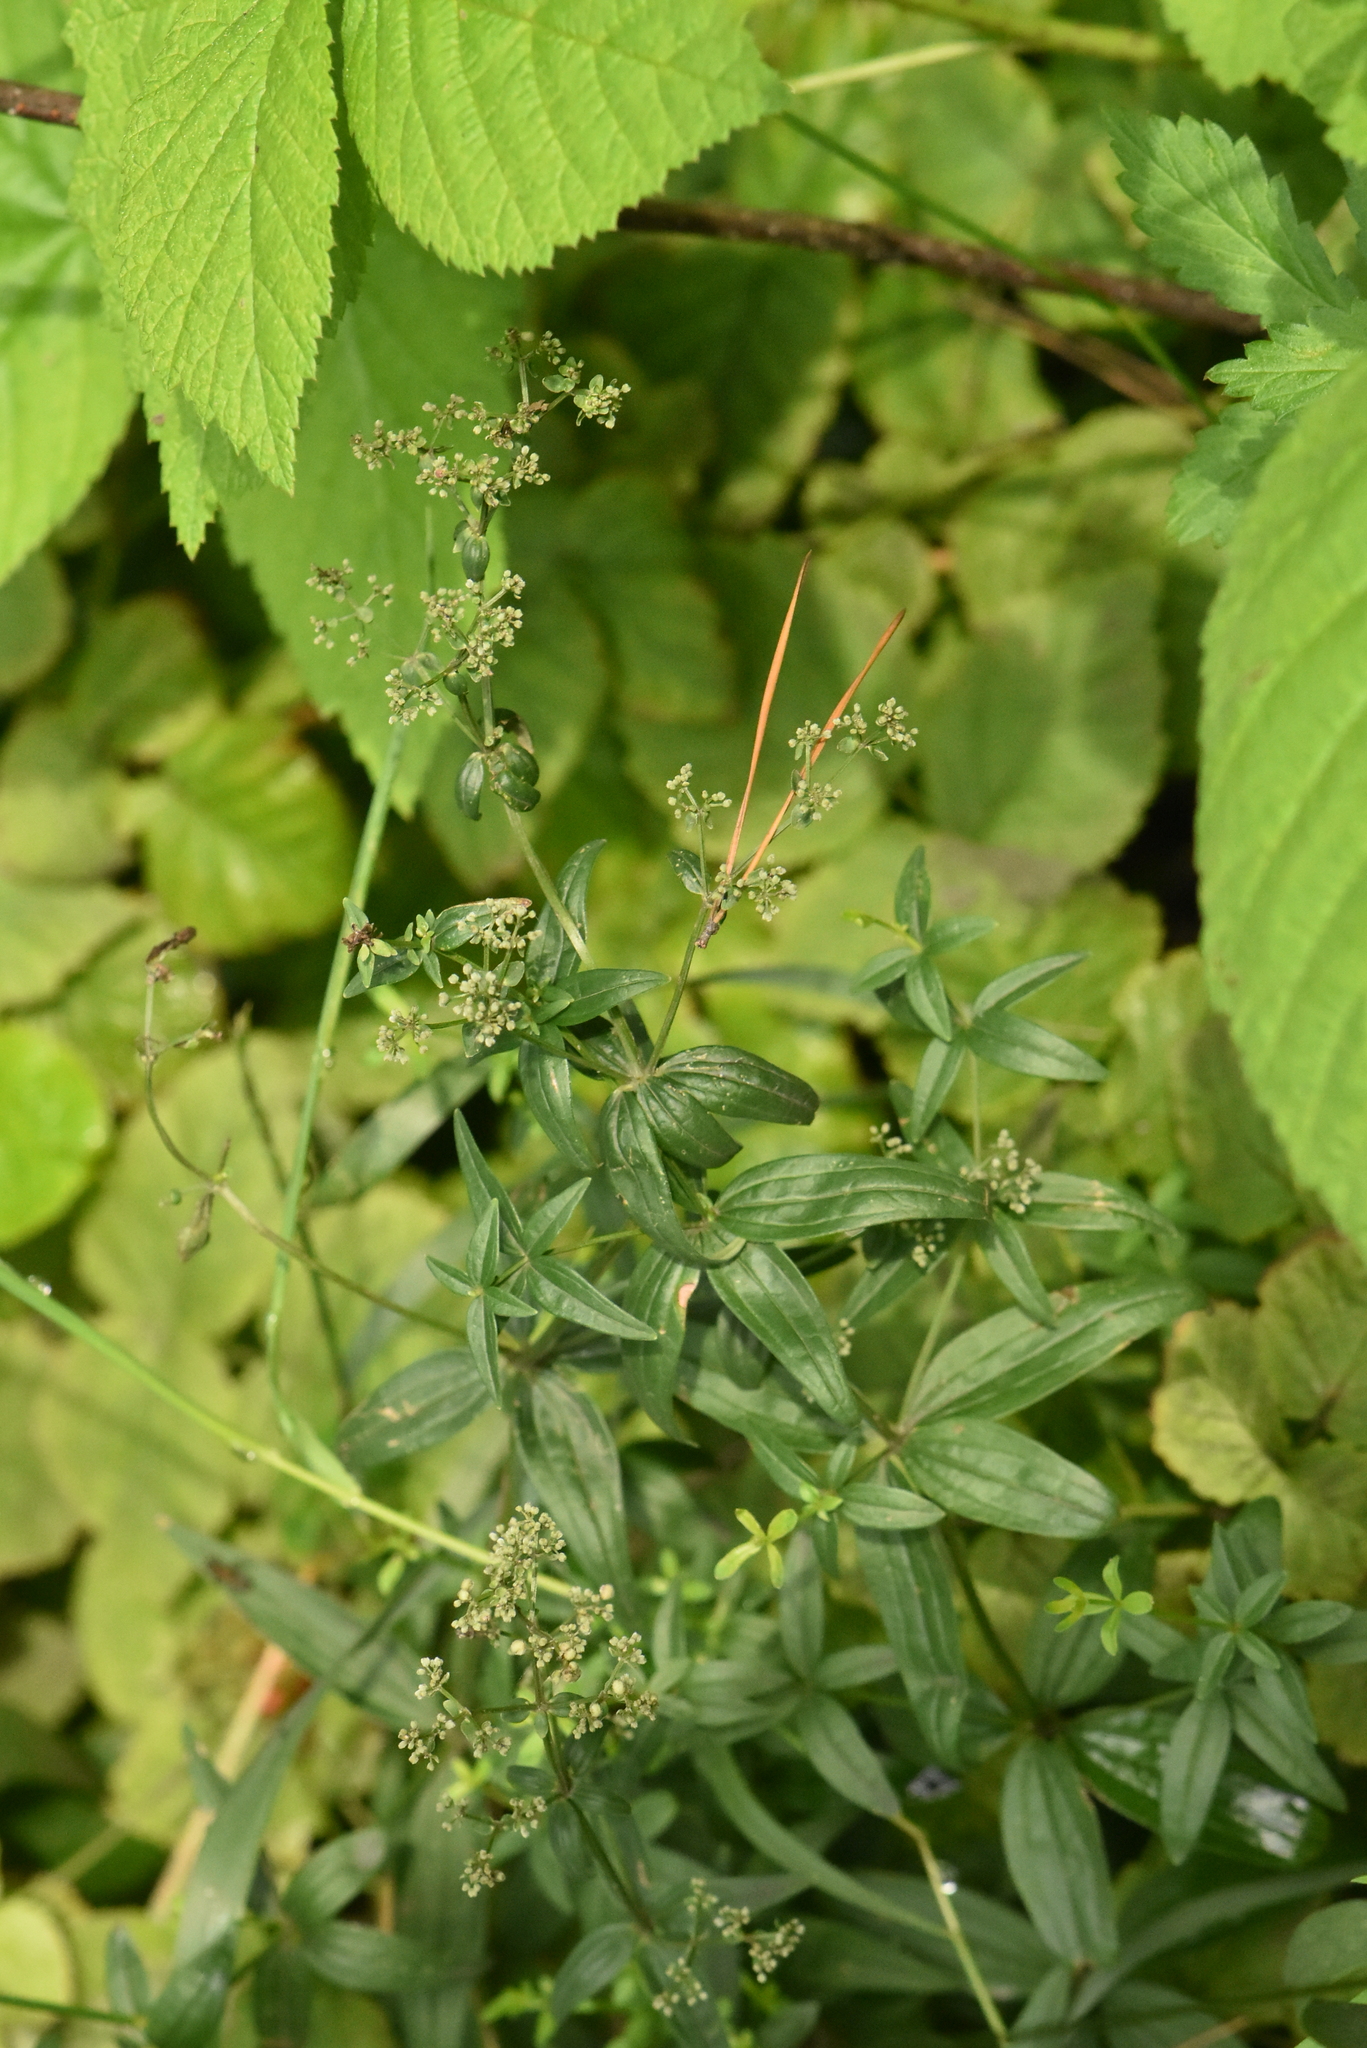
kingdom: Plantae
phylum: Tracheophyta
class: Magnoliopsida
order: Gentianales
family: Rubiaceae
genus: Galium
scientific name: Galium boreale
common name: Northern bedstraw
